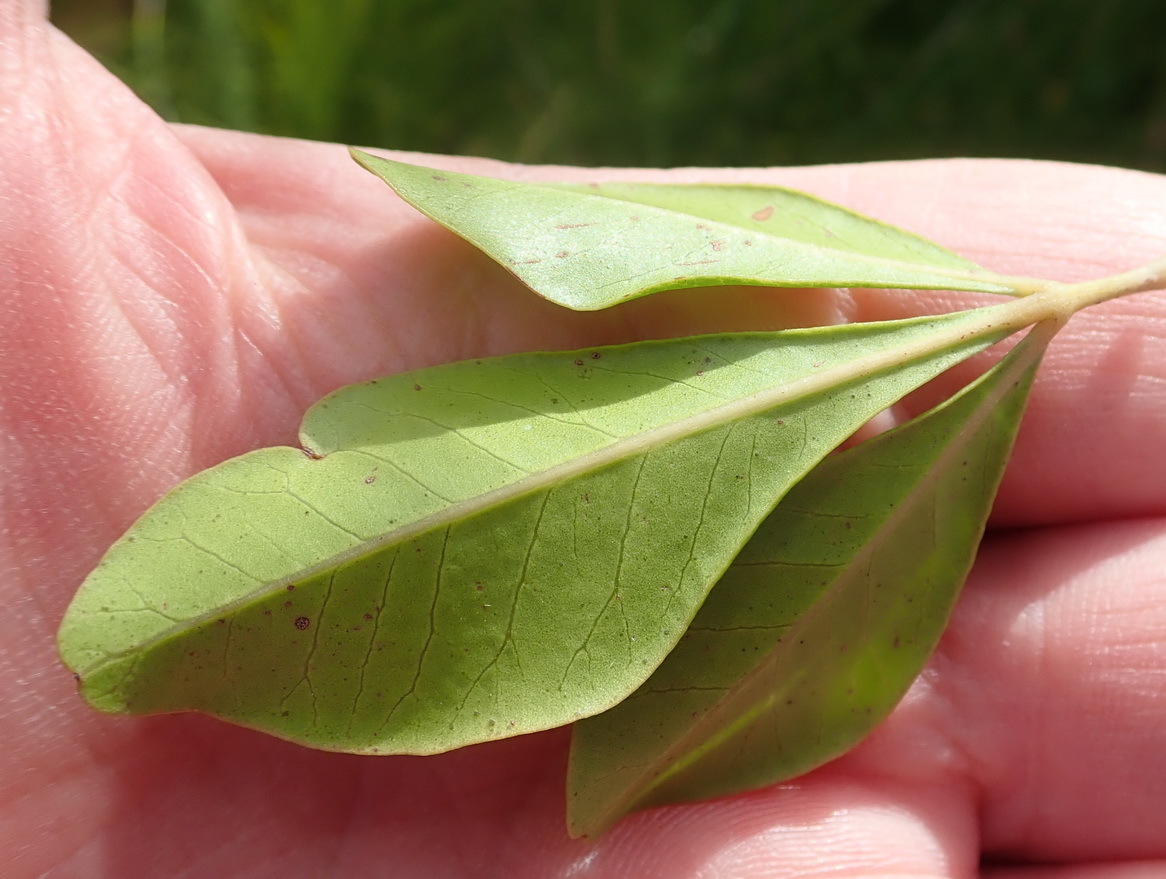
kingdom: Plantae
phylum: Tracheophyta
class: Magnoliopsida
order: Sapindales
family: Anacardiaceae
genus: Searsia
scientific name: Searsia lucida
